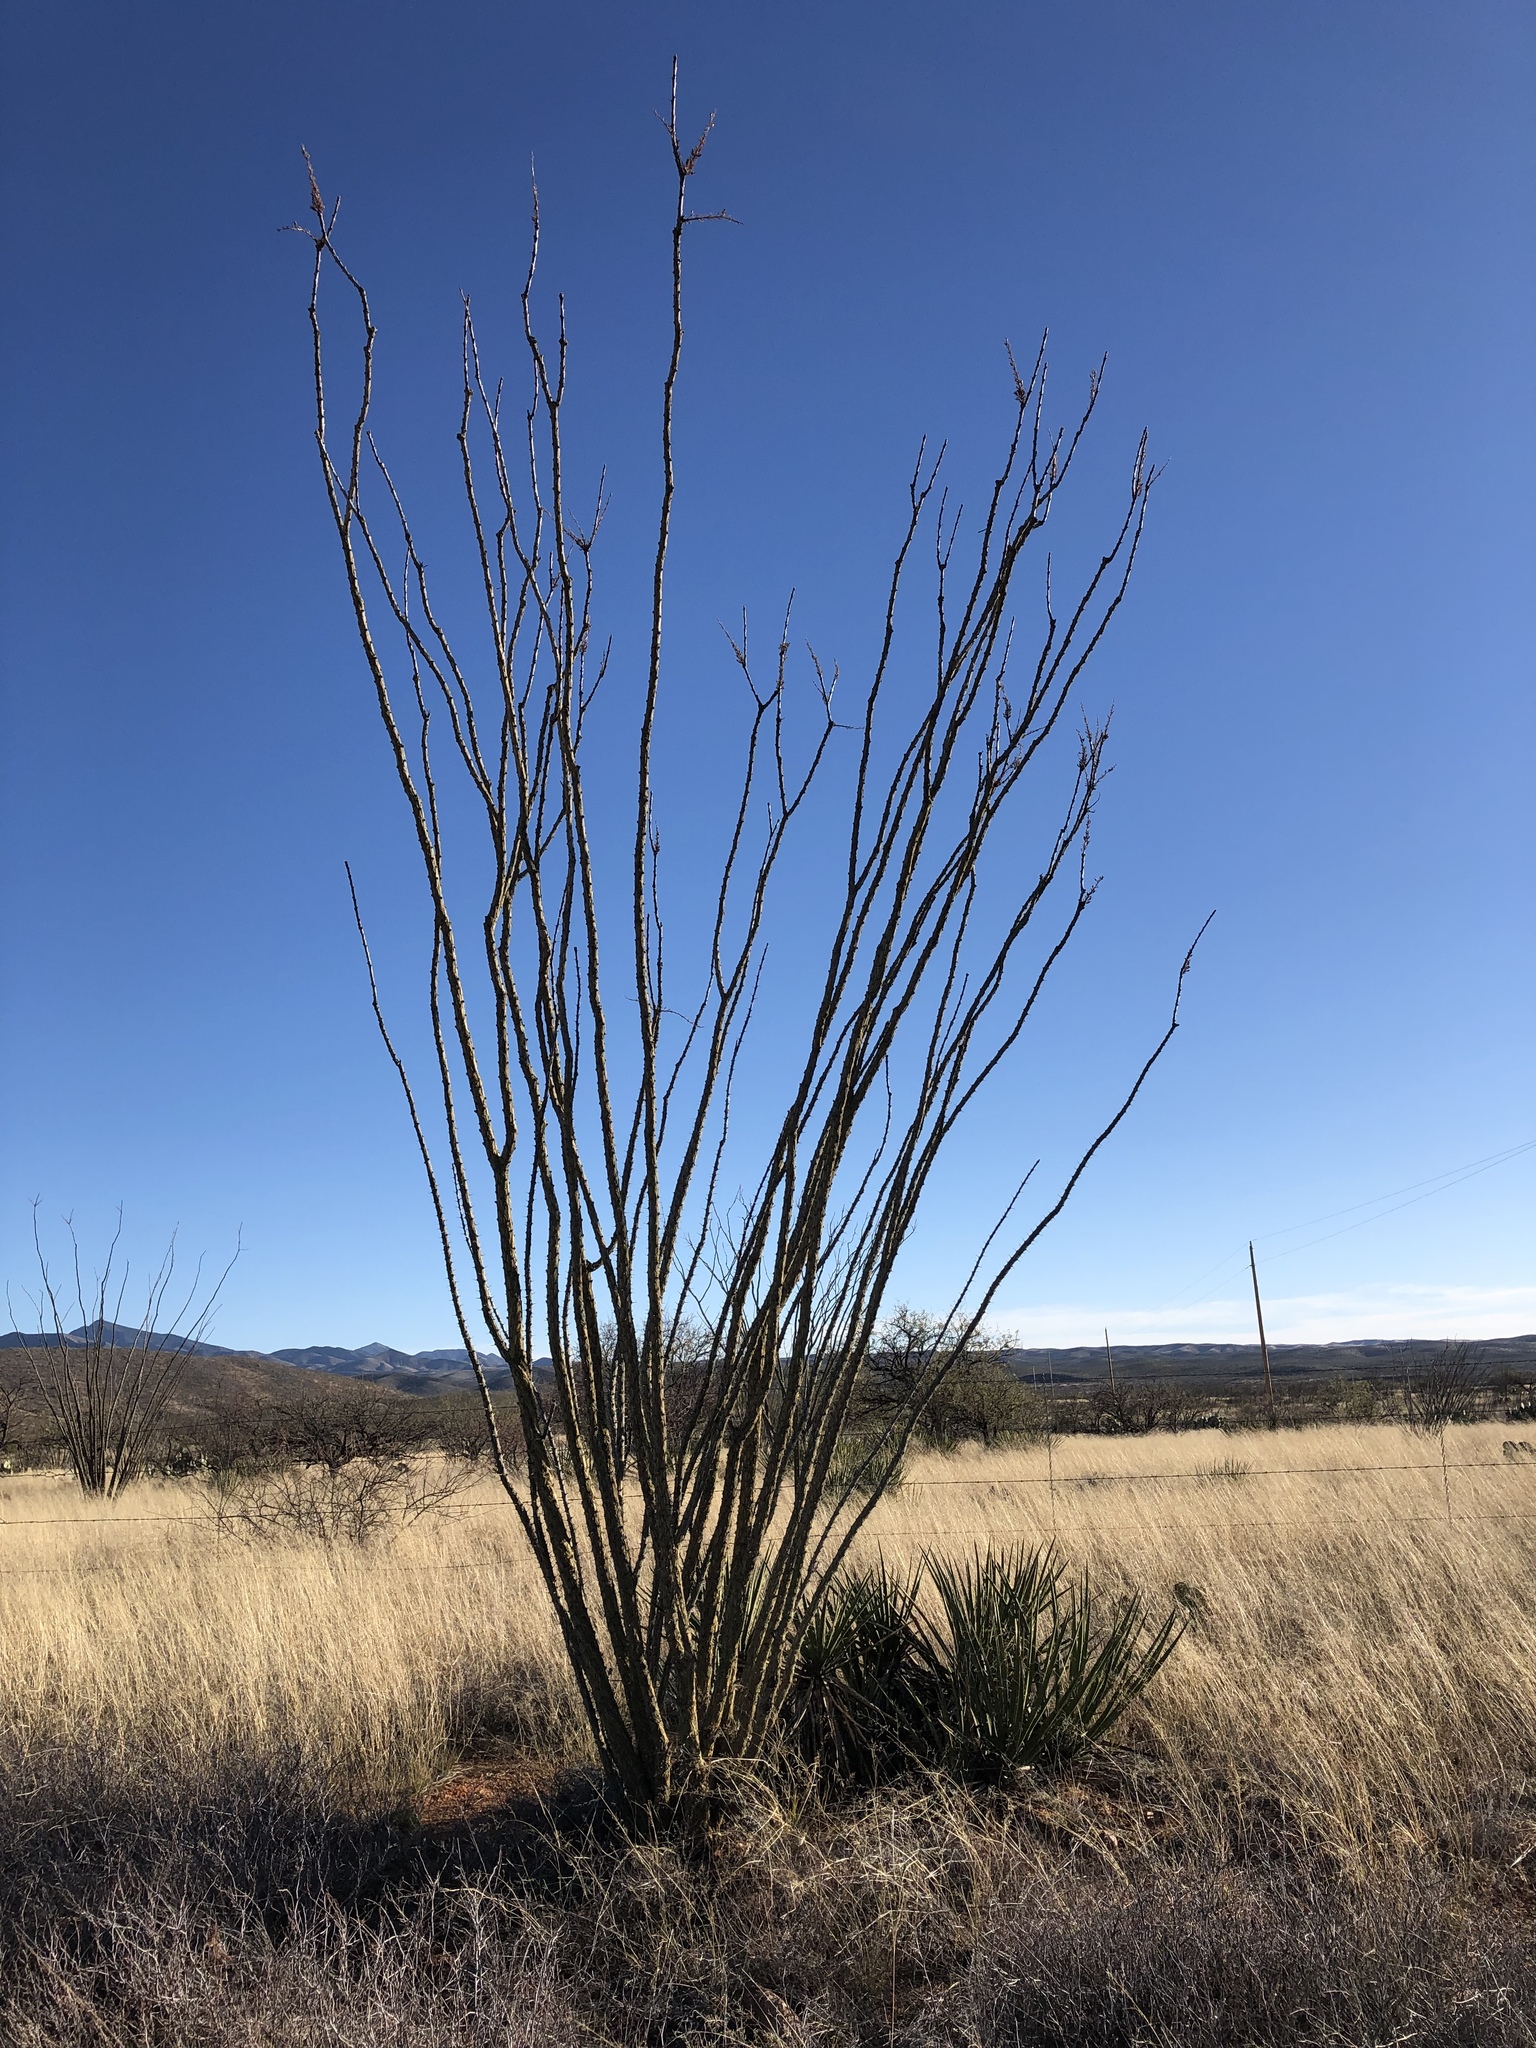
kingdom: Plantae
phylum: Tracheophyta
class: Magnoliopsida
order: Ericales
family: Fouquieriaceae
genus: Fouquieria
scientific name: Fouquieria splendens
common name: Vine-cactus
